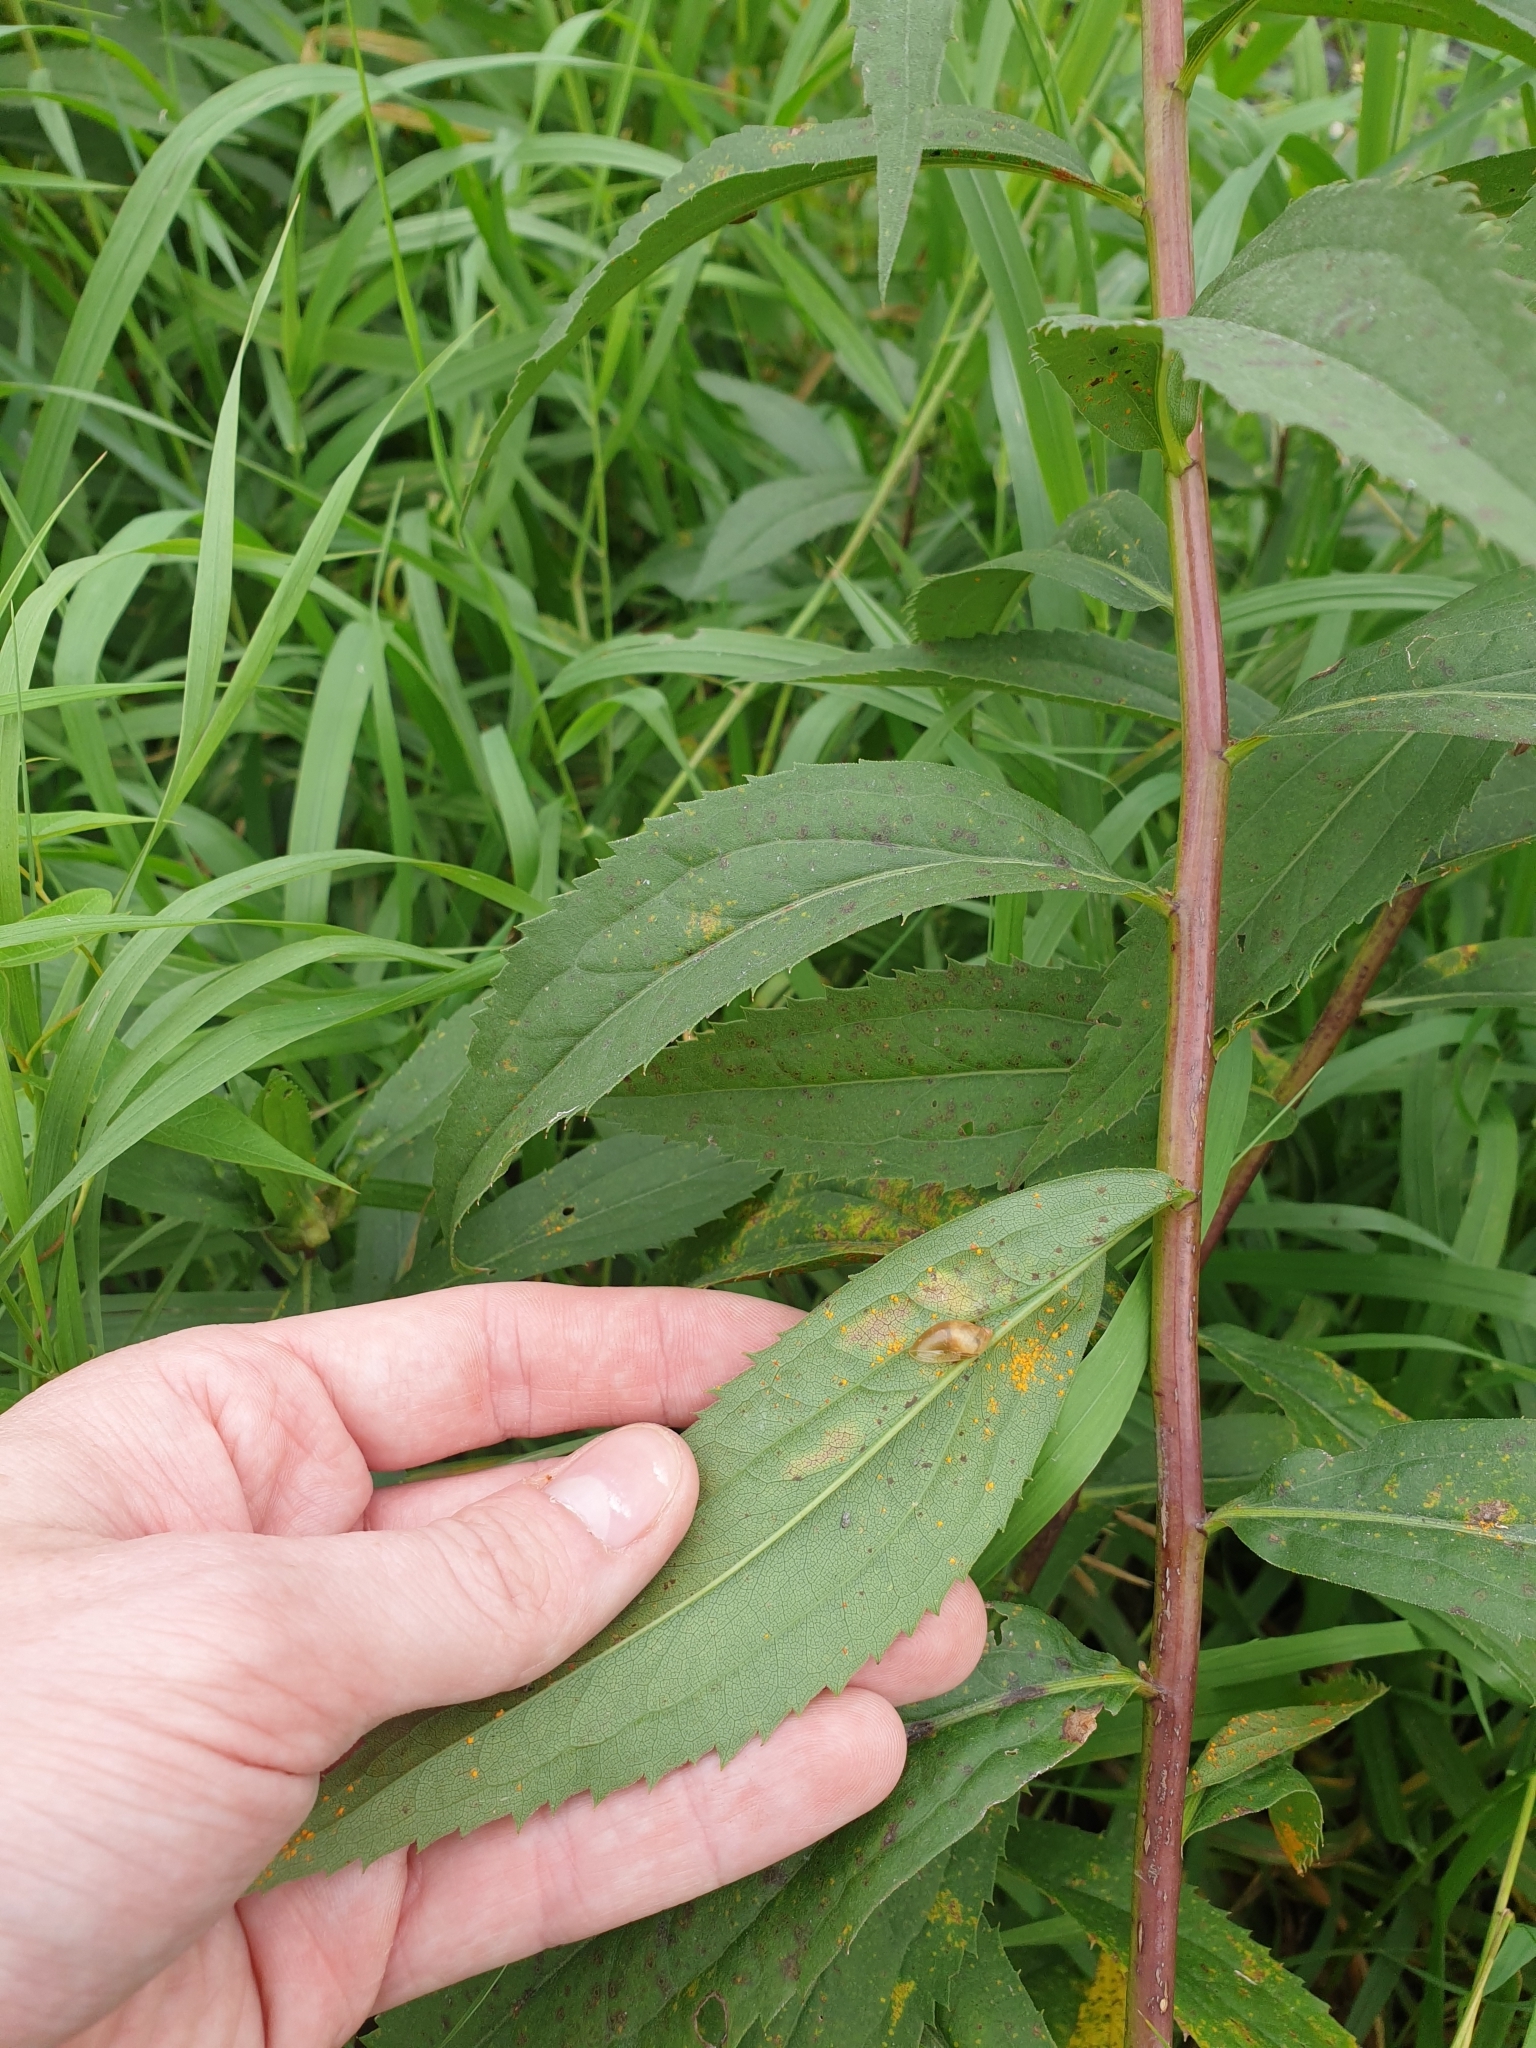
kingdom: Plantae
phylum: Tracheophyta
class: Magnoliopsida
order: Asterales
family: Asteraceae
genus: Solidago
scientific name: Solidago gigantea
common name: Giant goldenrod
